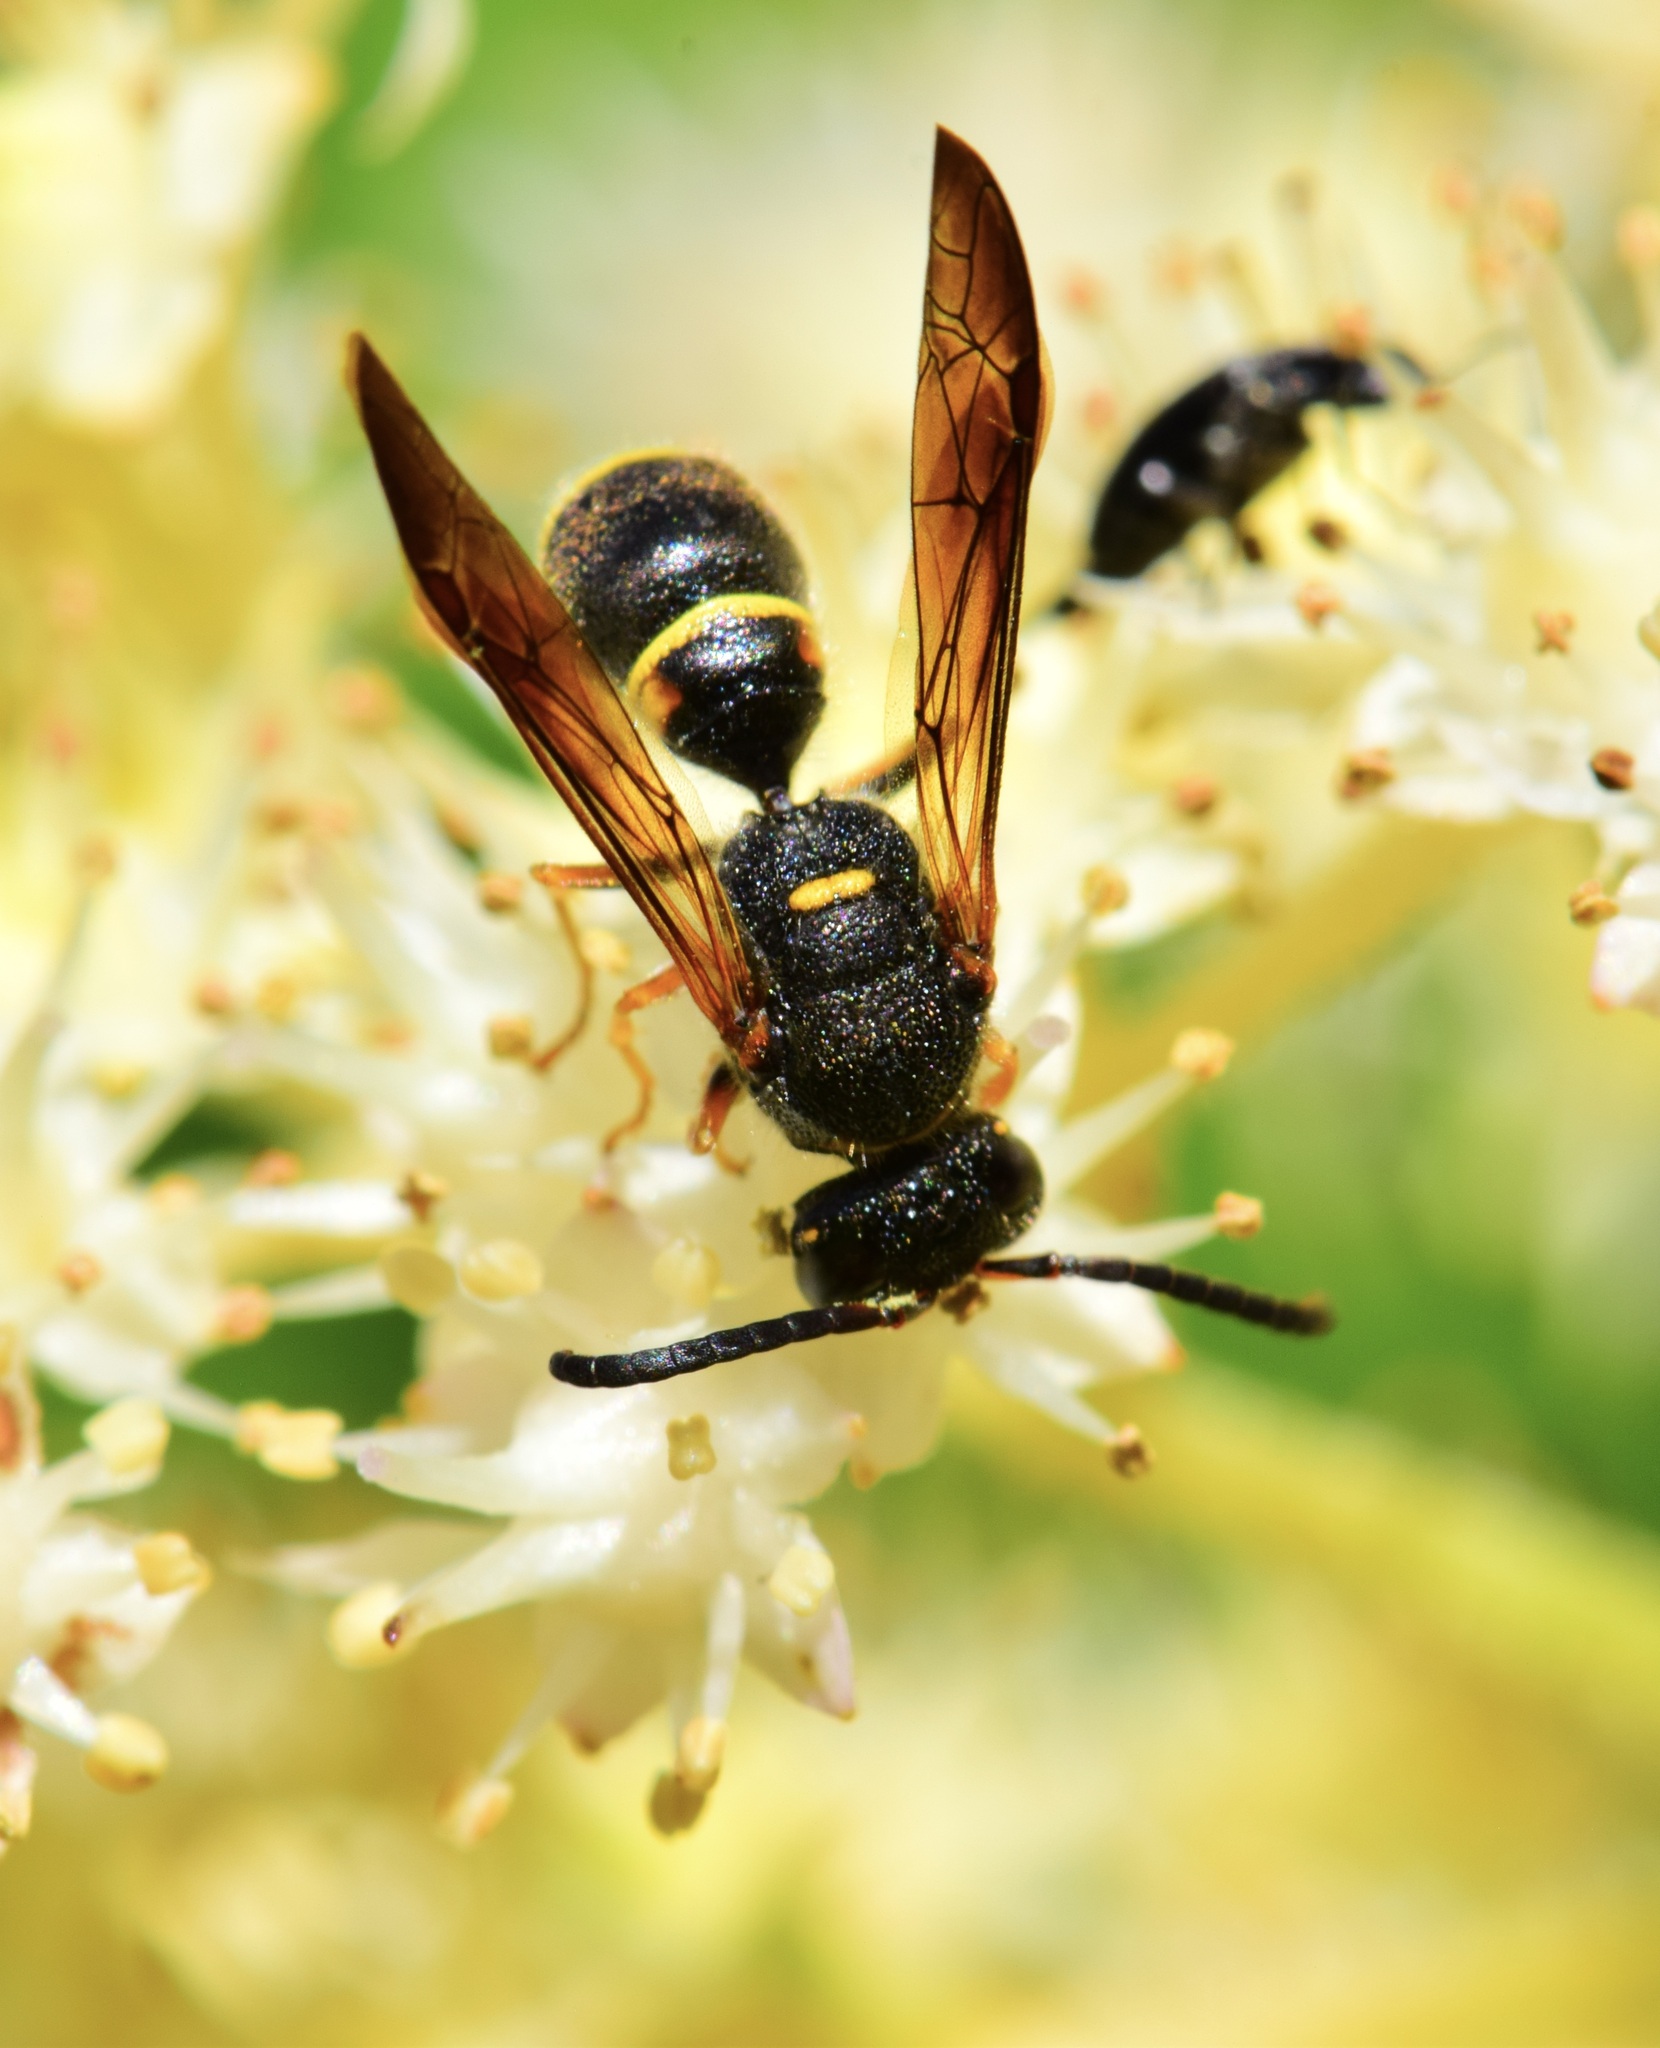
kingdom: Animalia
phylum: Arthropoda
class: Insecta
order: Hymenoptera
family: Vespidae
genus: Ancistrocerus
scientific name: Ancistrocerus unifasciatus
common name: One-banded mason wasp
